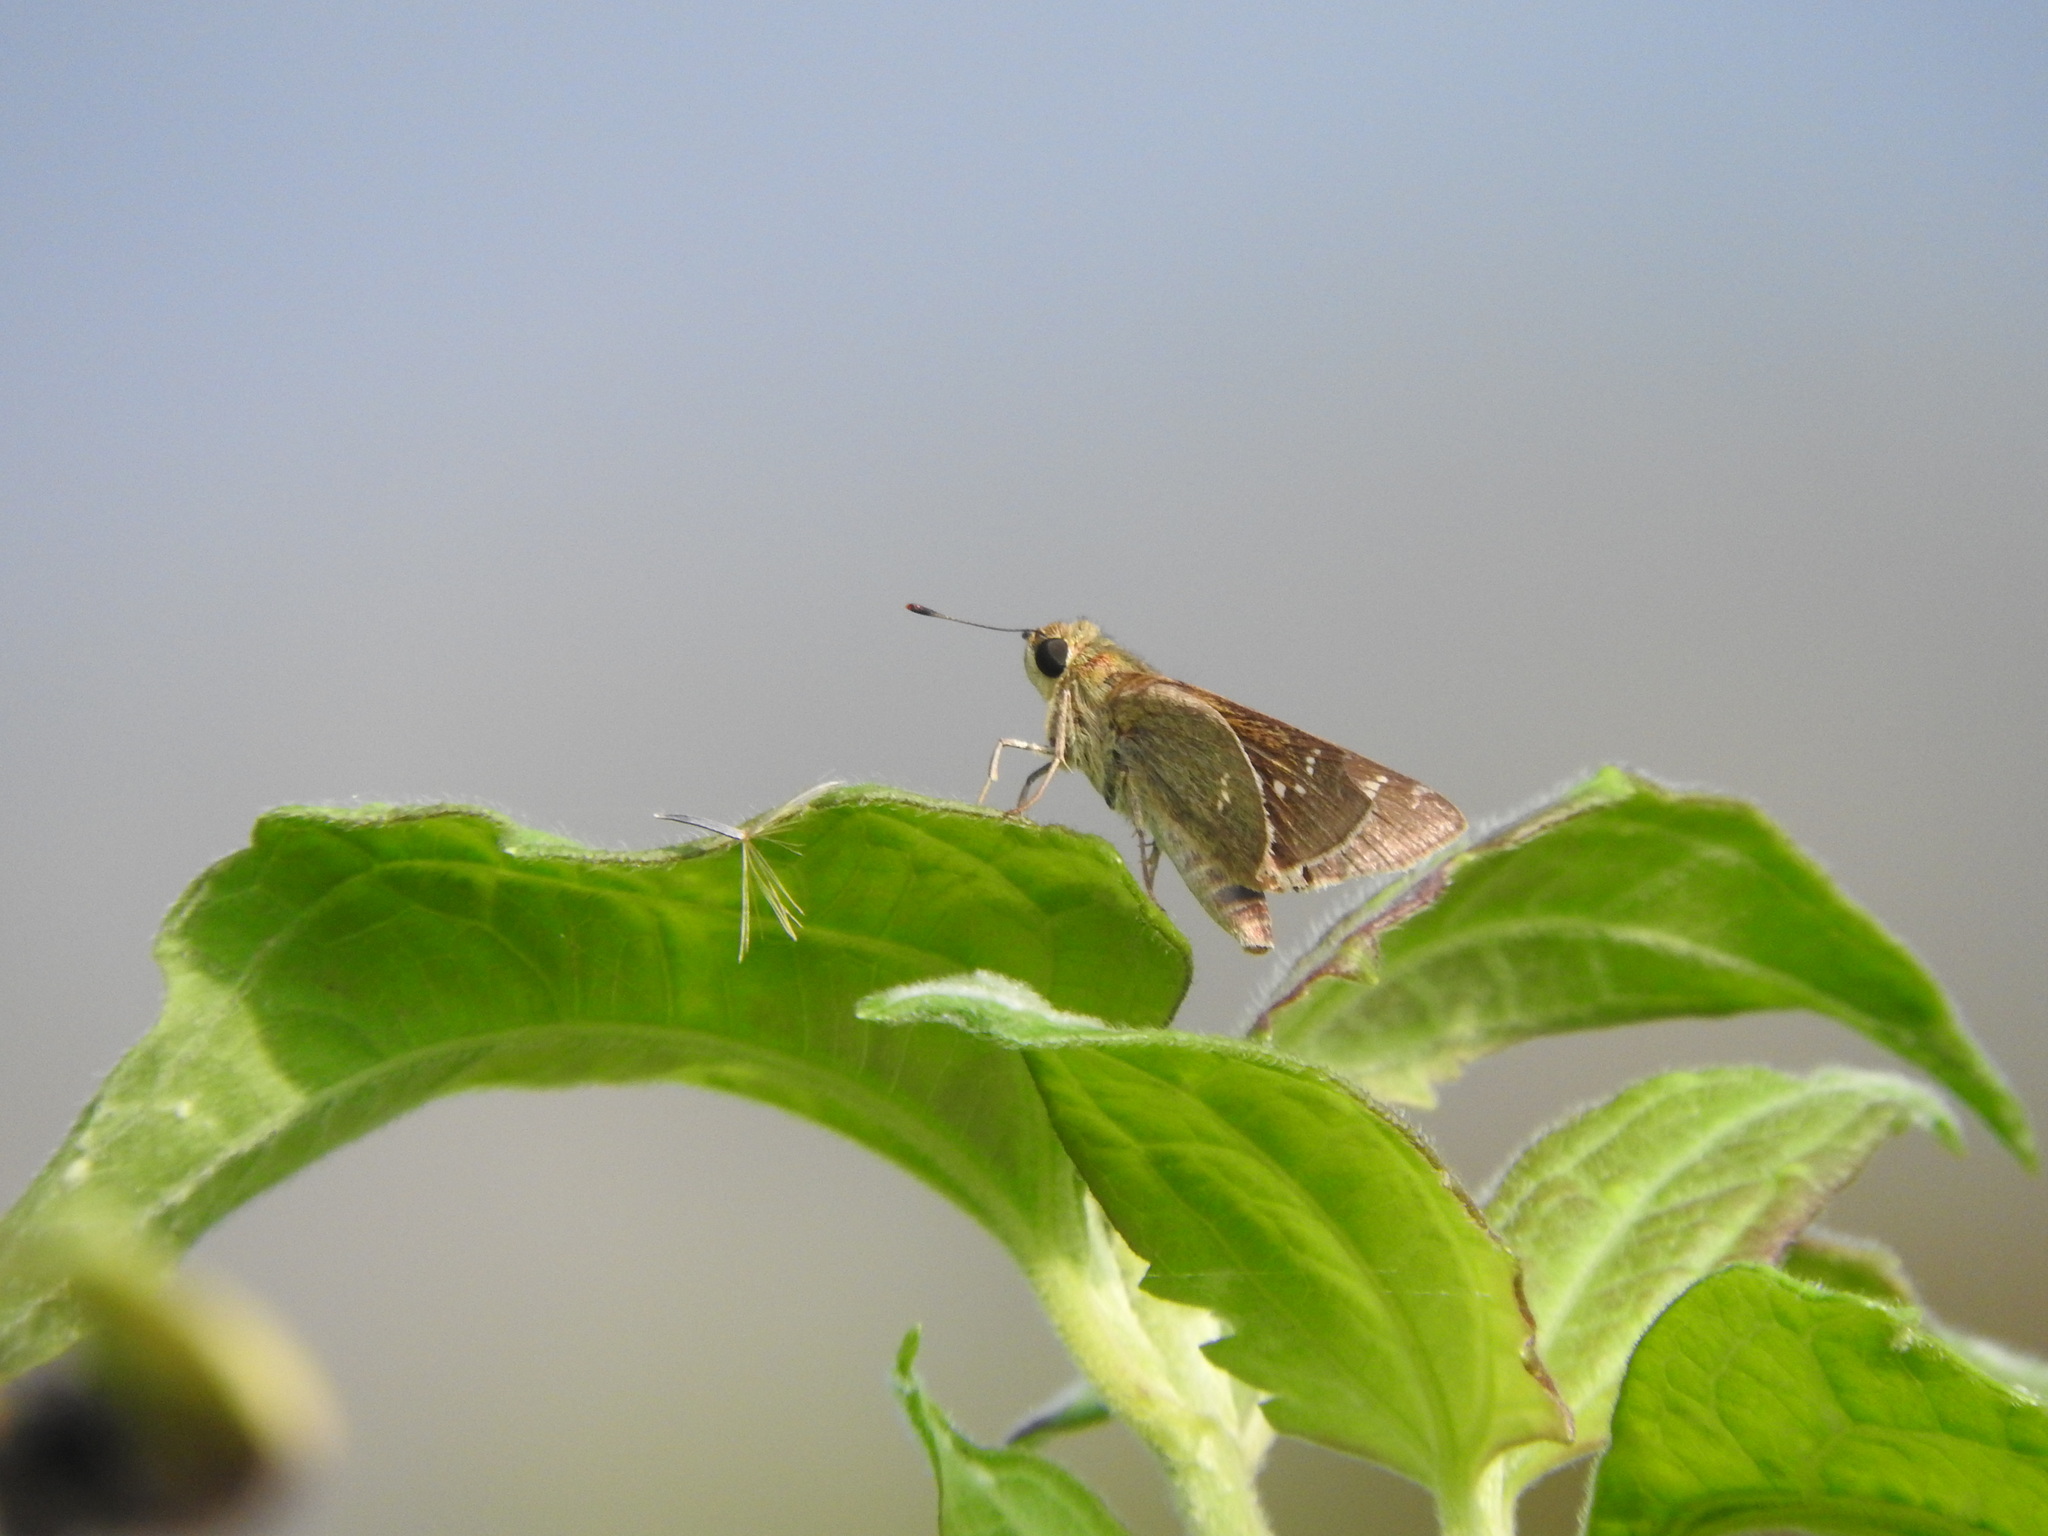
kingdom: Animalia
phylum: Arthropoda
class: Insecta
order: Lepidoptera
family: Hesperiidae
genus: Borbo
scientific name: Borbo cinnara
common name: Formosan swift
